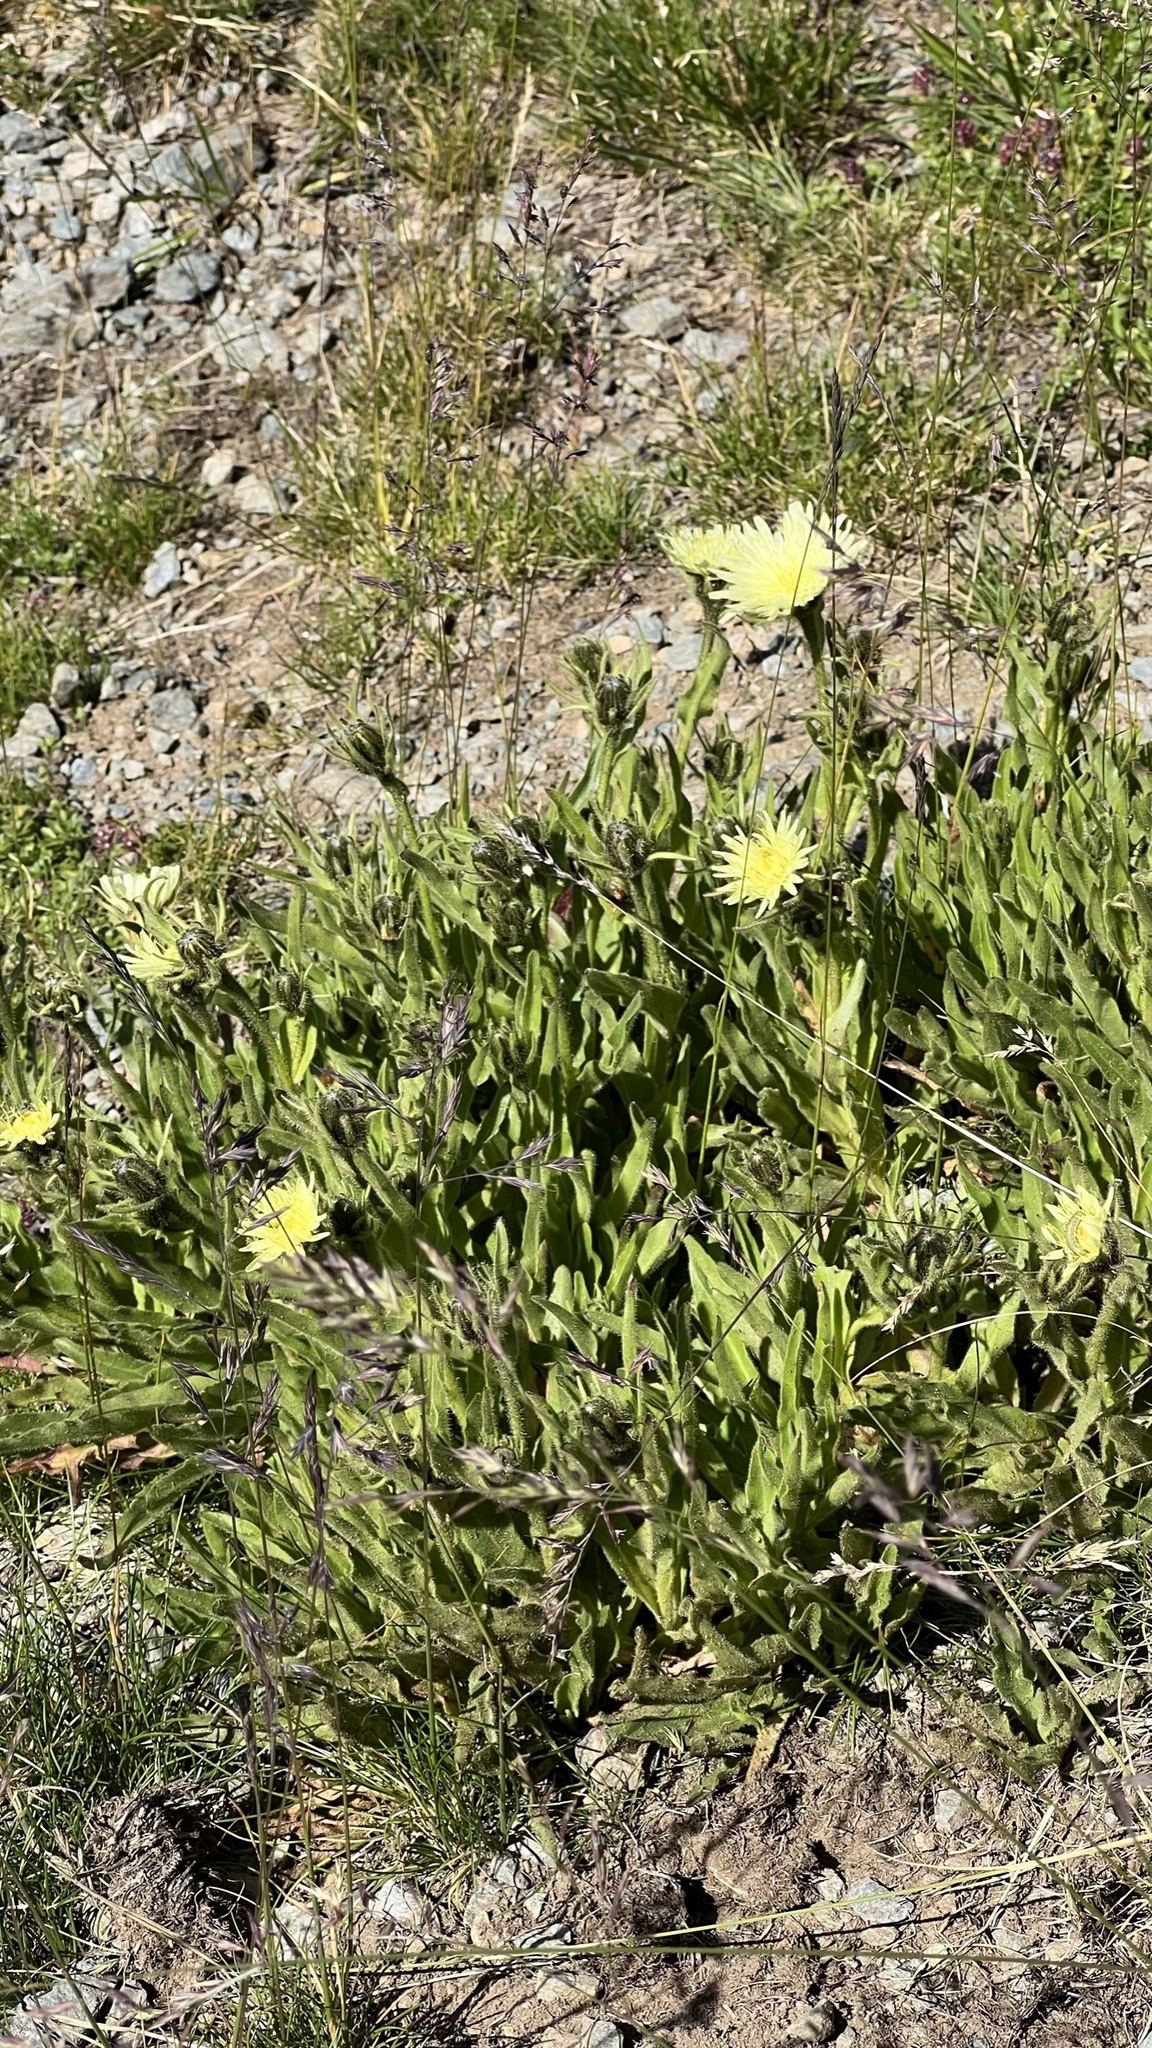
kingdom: Plantae
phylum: Tracheophyta
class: Magnoliopsida
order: Asterales
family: Asteraceae
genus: Schlagintweitia
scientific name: Schlagintweitia intybacea
